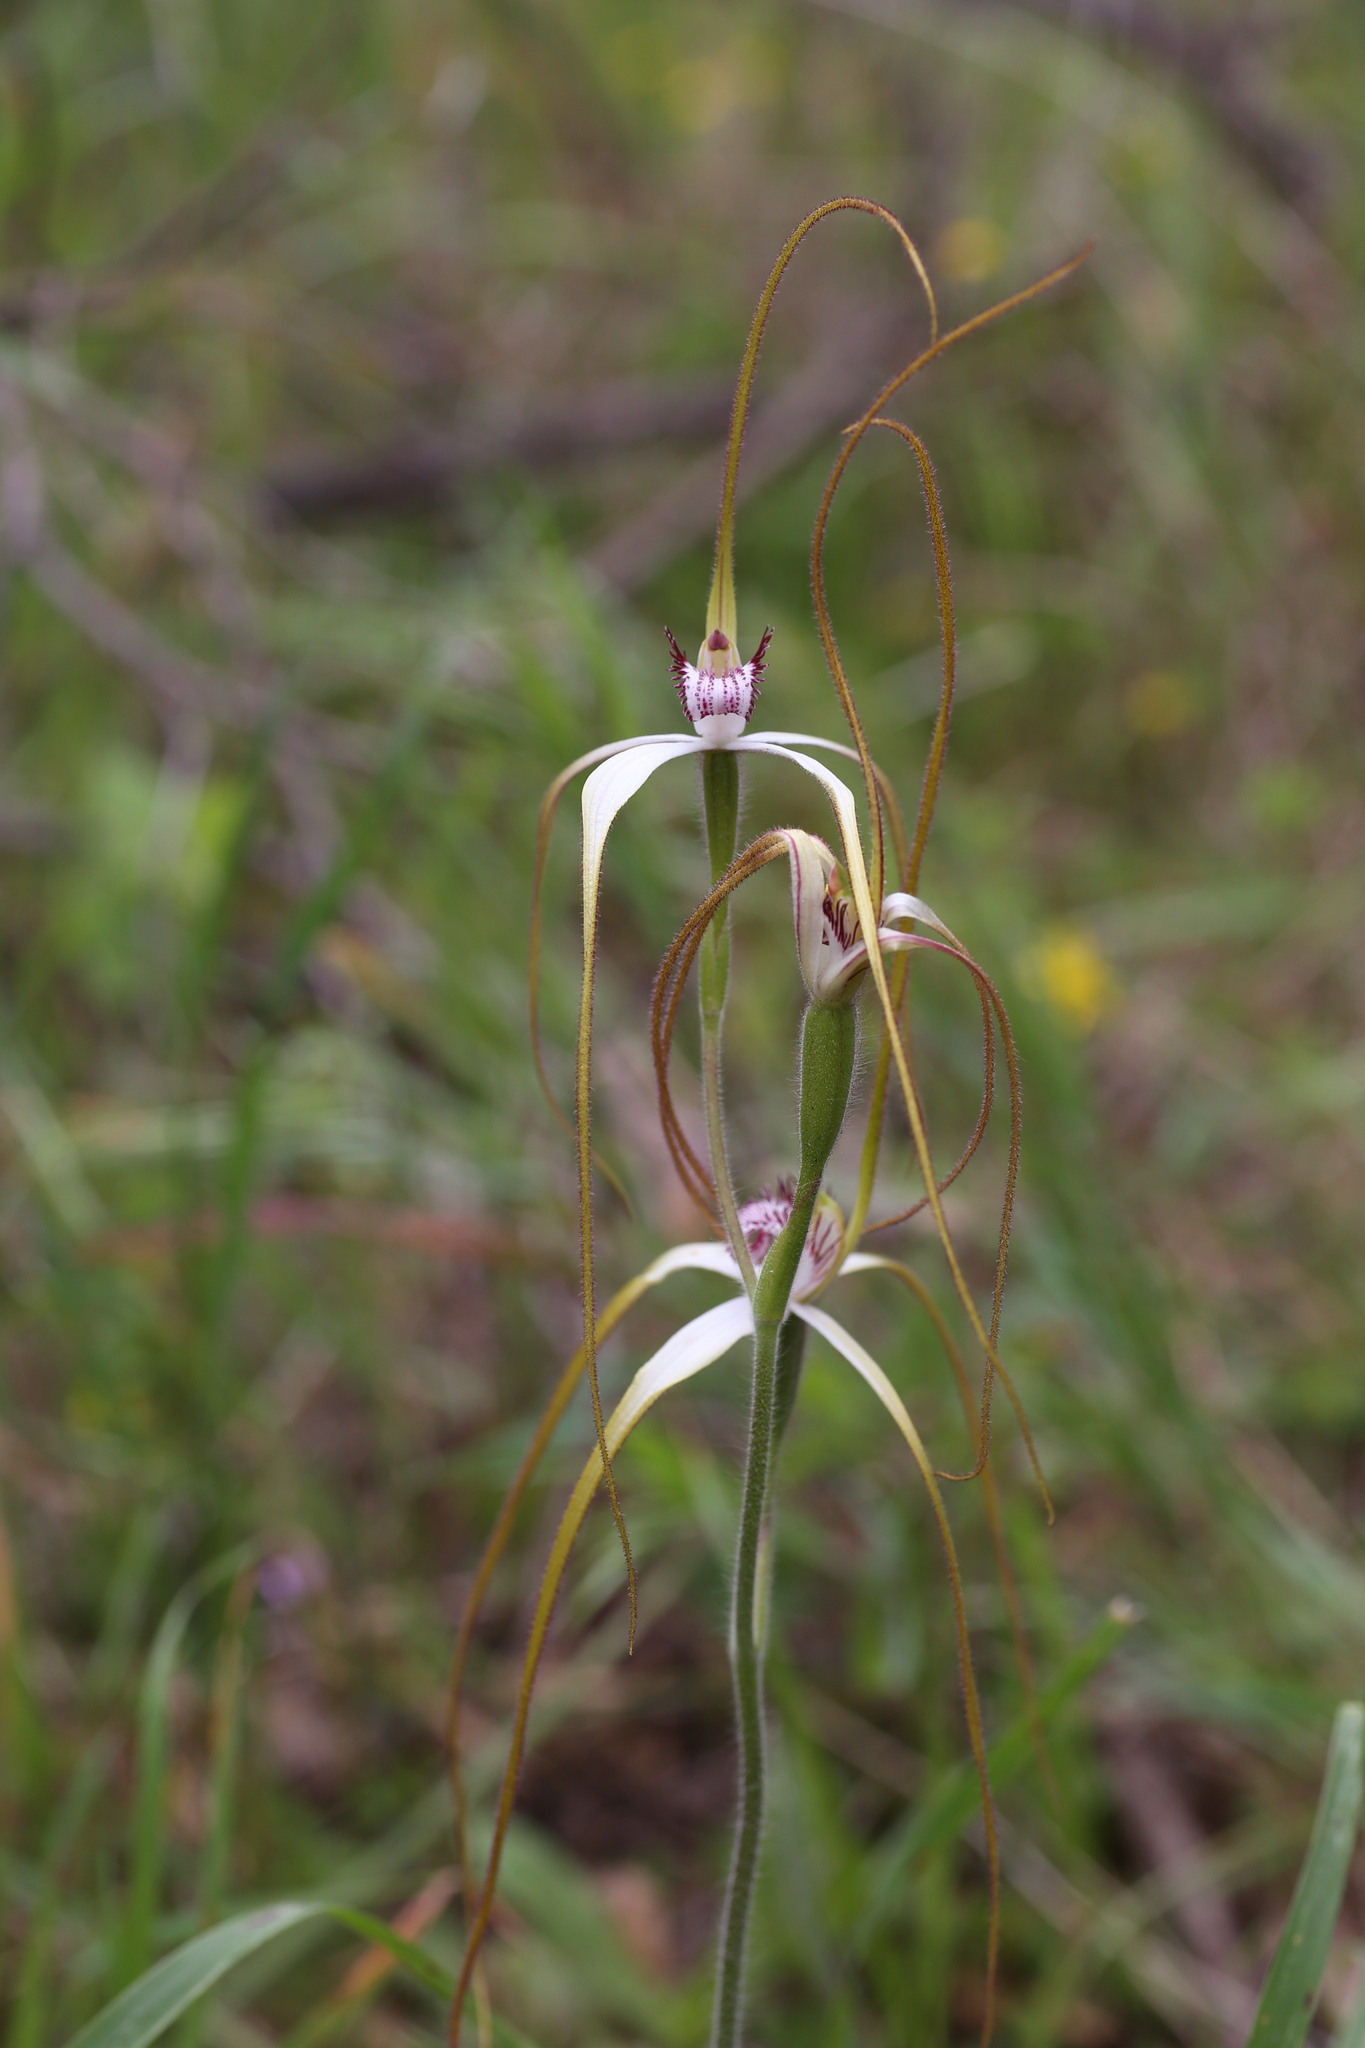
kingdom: Plantae
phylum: Tracheophyta
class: Liliopsida
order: Asparagales
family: Orchidaceae
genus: Caladenia
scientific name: Caladenia longicauda
